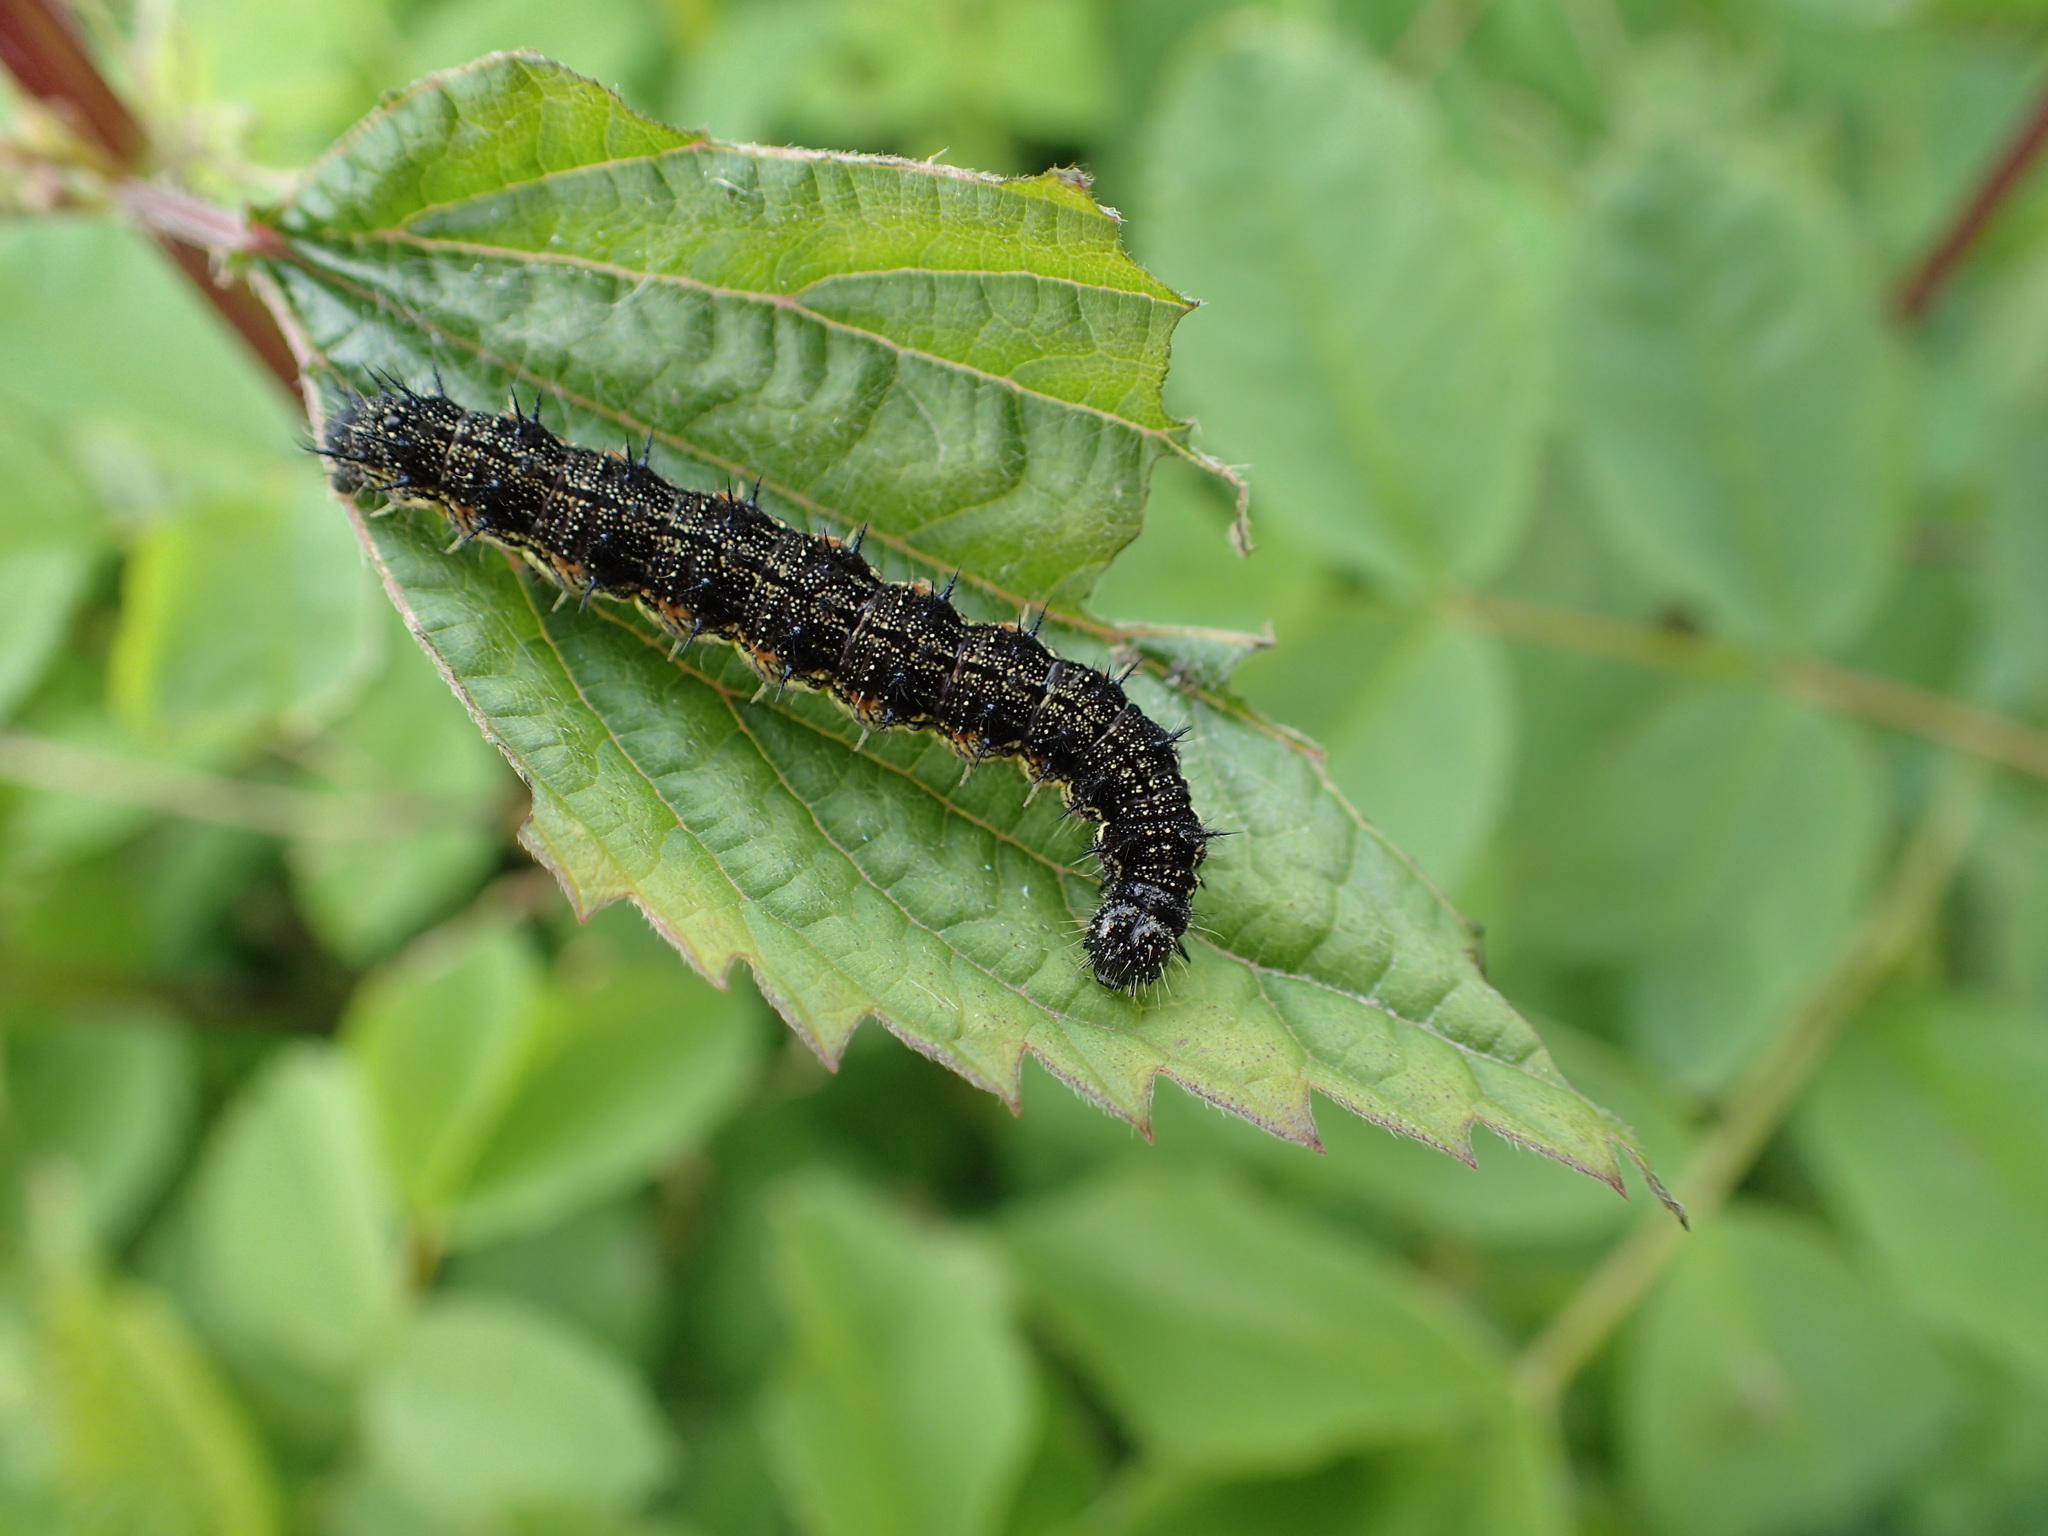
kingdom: Animalia
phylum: Arthropoda
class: Insecta
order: Lepidoptera
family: Nymphalidae
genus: Aglais
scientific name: Aglais milberti
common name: Milbert's tortoiseshell
